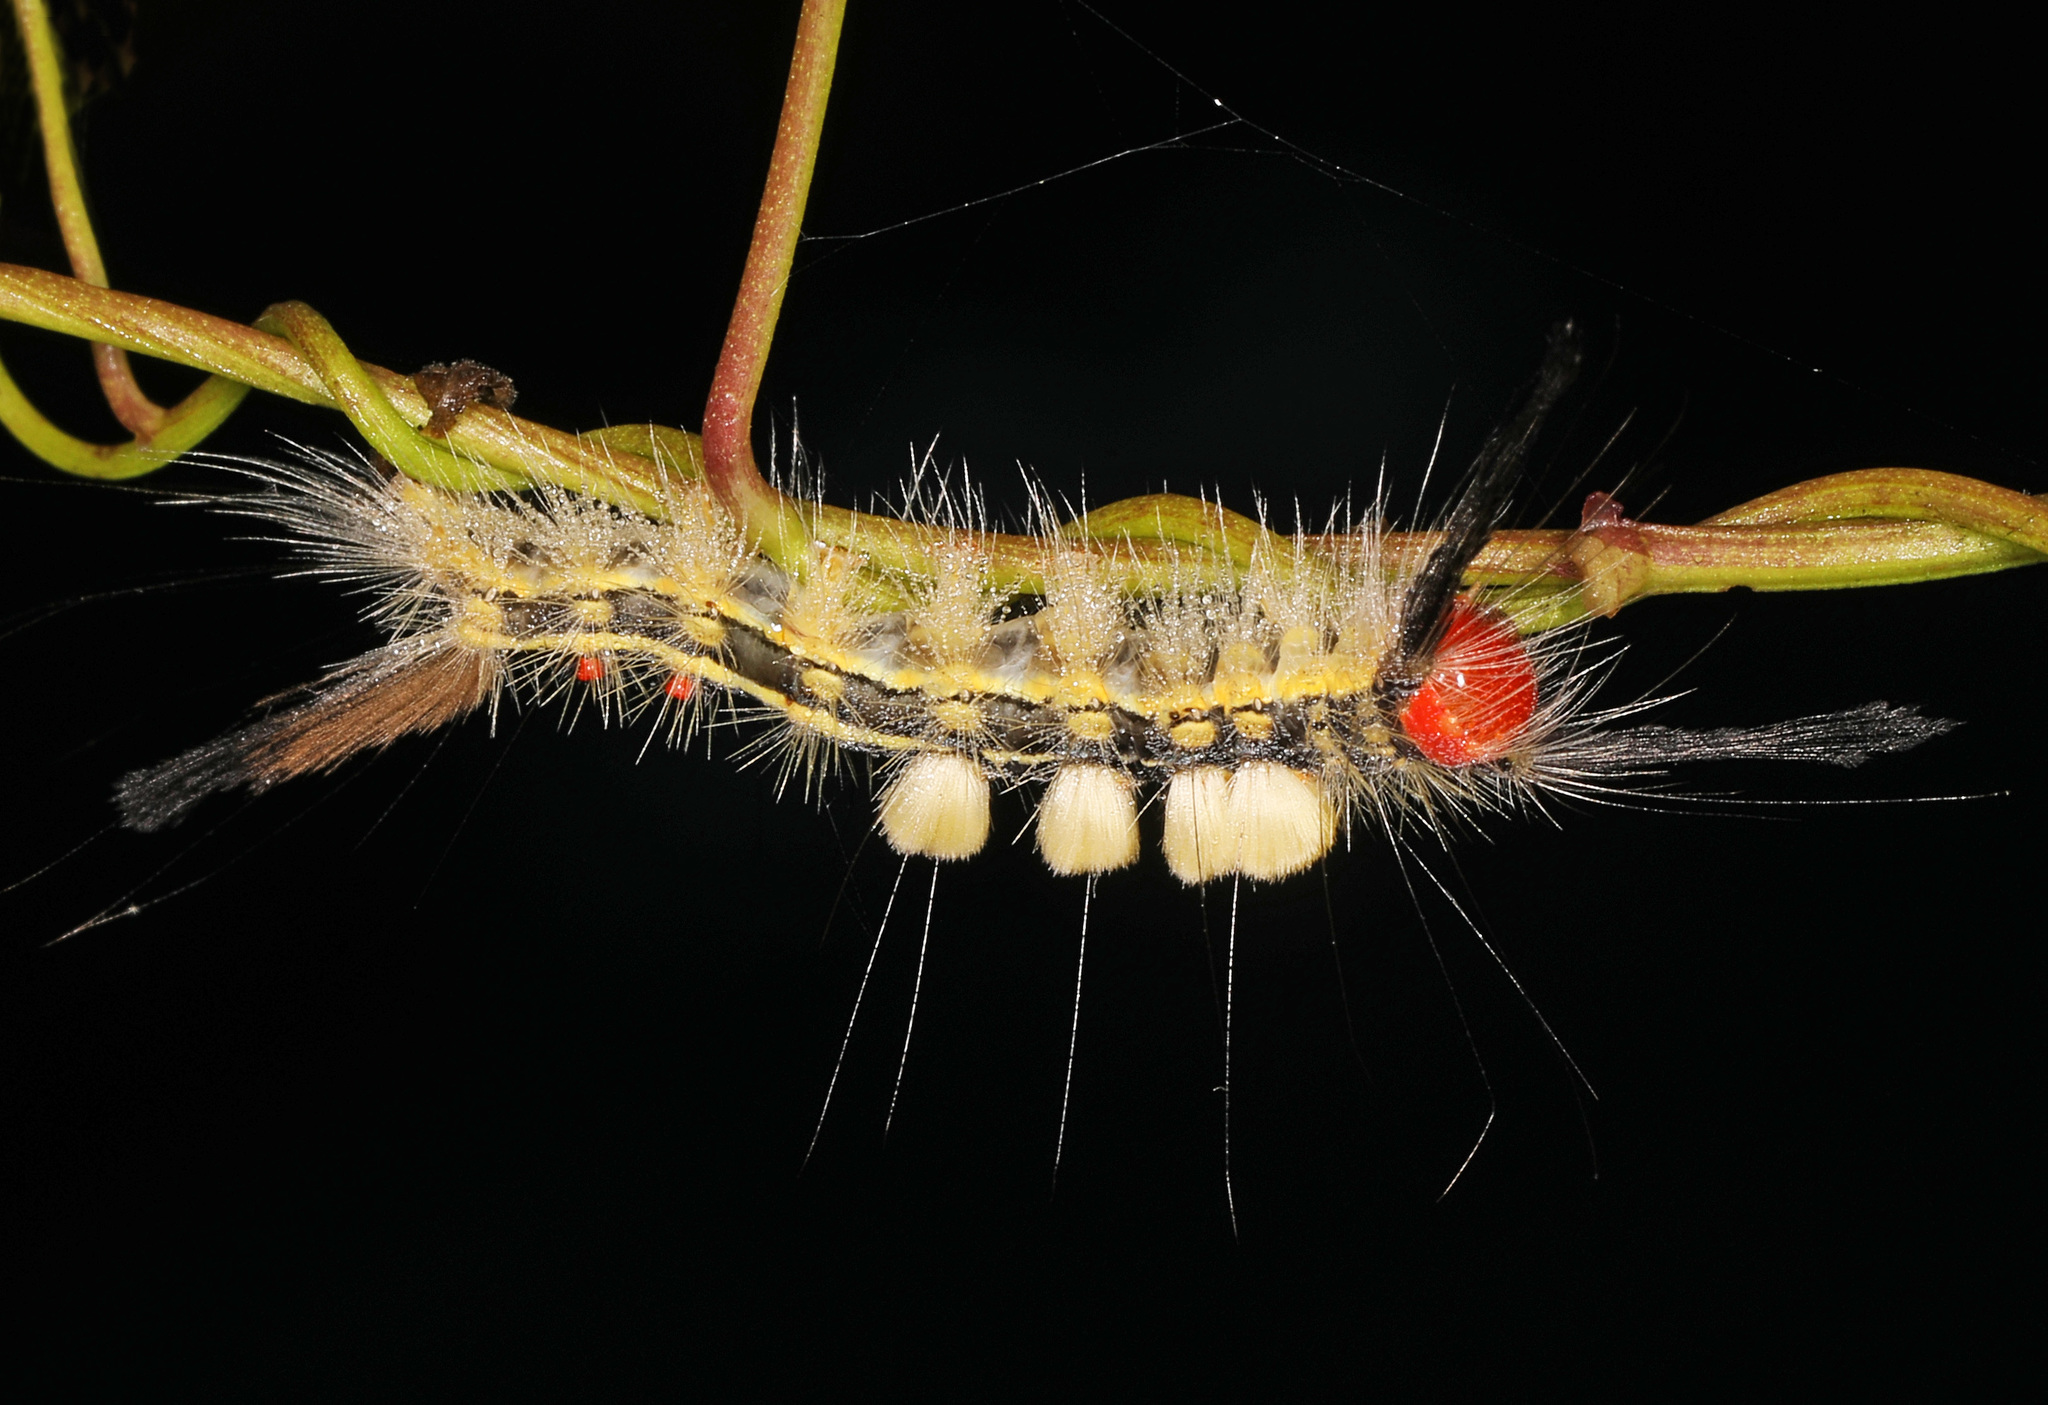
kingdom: Animalia
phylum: Arthropoda
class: Insecta
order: Lepidoptera
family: Erebidae
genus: Orgyia
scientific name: Orgyia leucostigma
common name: White-marked tussock moth
